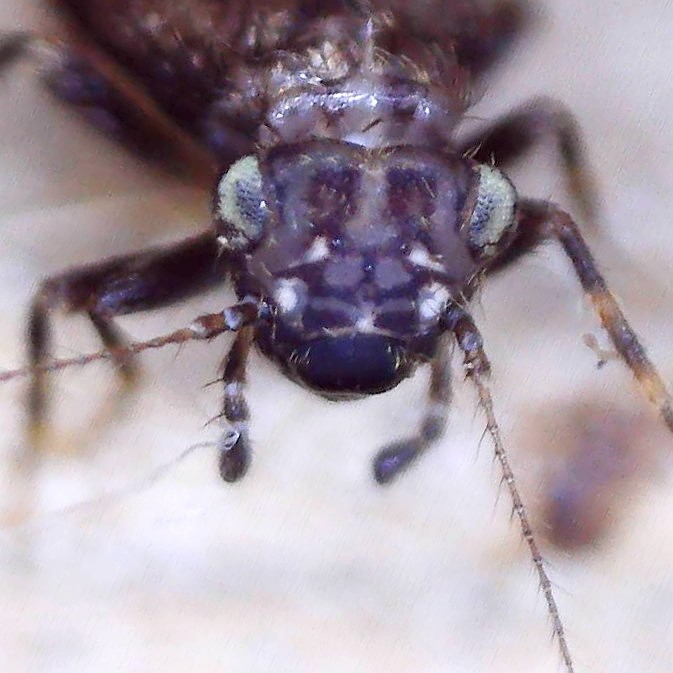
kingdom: Animalia
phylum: Arthropoda
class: Insecta
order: Psocodea
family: Lepidopsocidae
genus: Pteroxanium
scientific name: Pteroxanium kelloggi
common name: Bark lice
